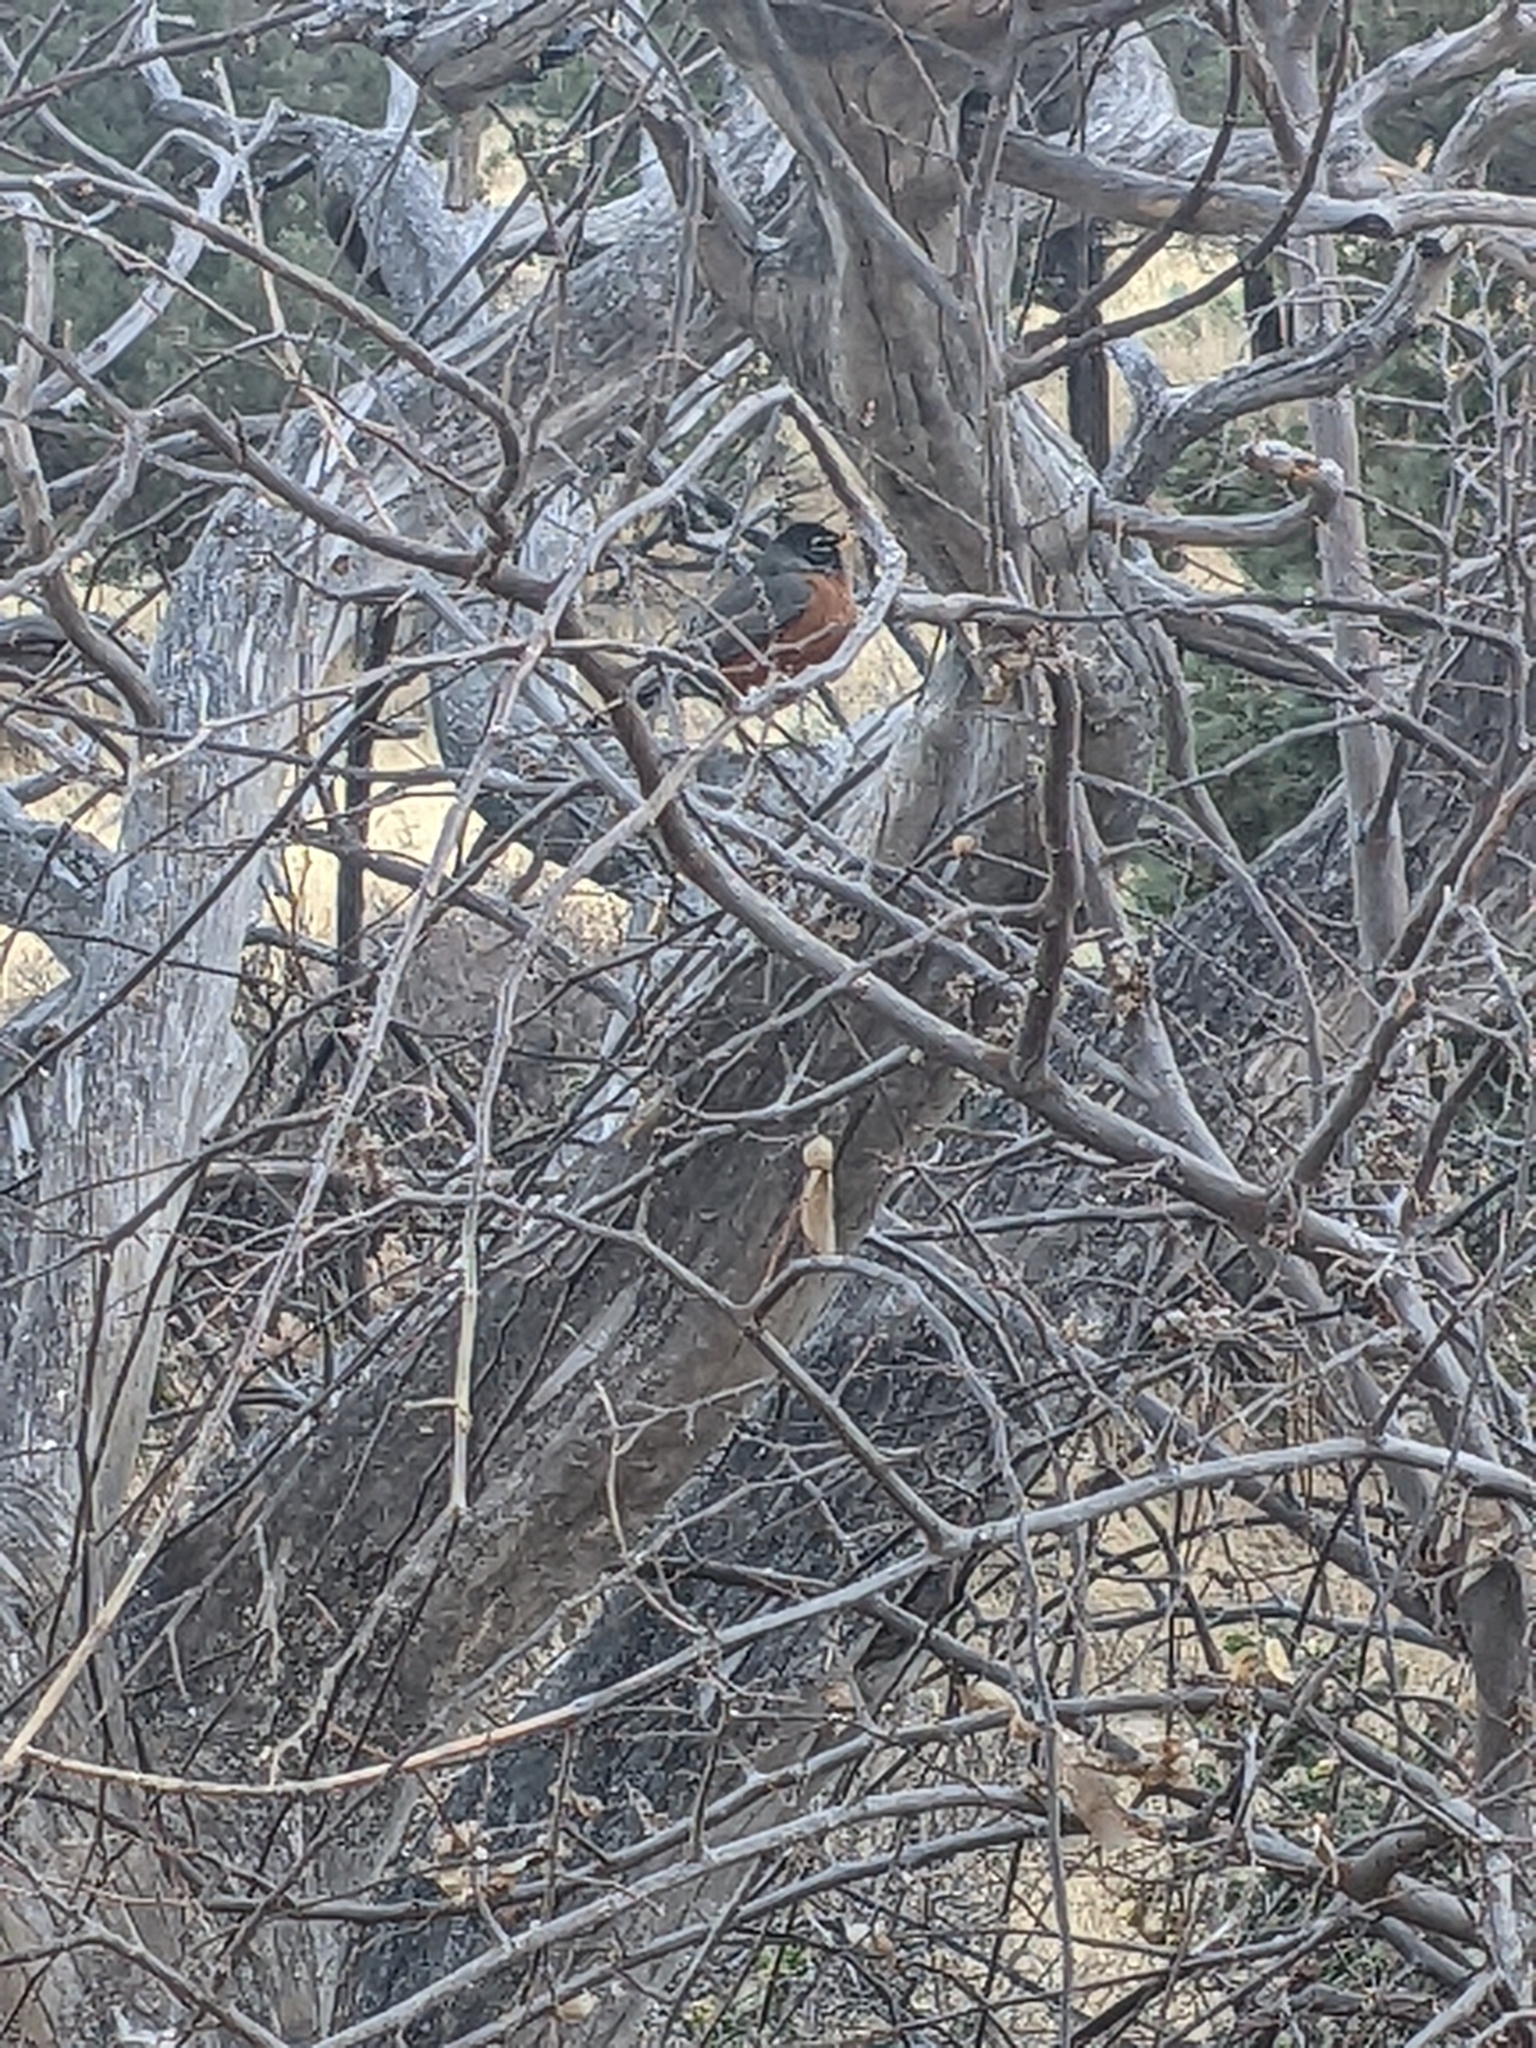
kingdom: Animalia
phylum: Chordata
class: Aves
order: Passeriformes
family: Turdidae
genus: Turdus
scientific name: Turdus migratorius
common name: American robin
